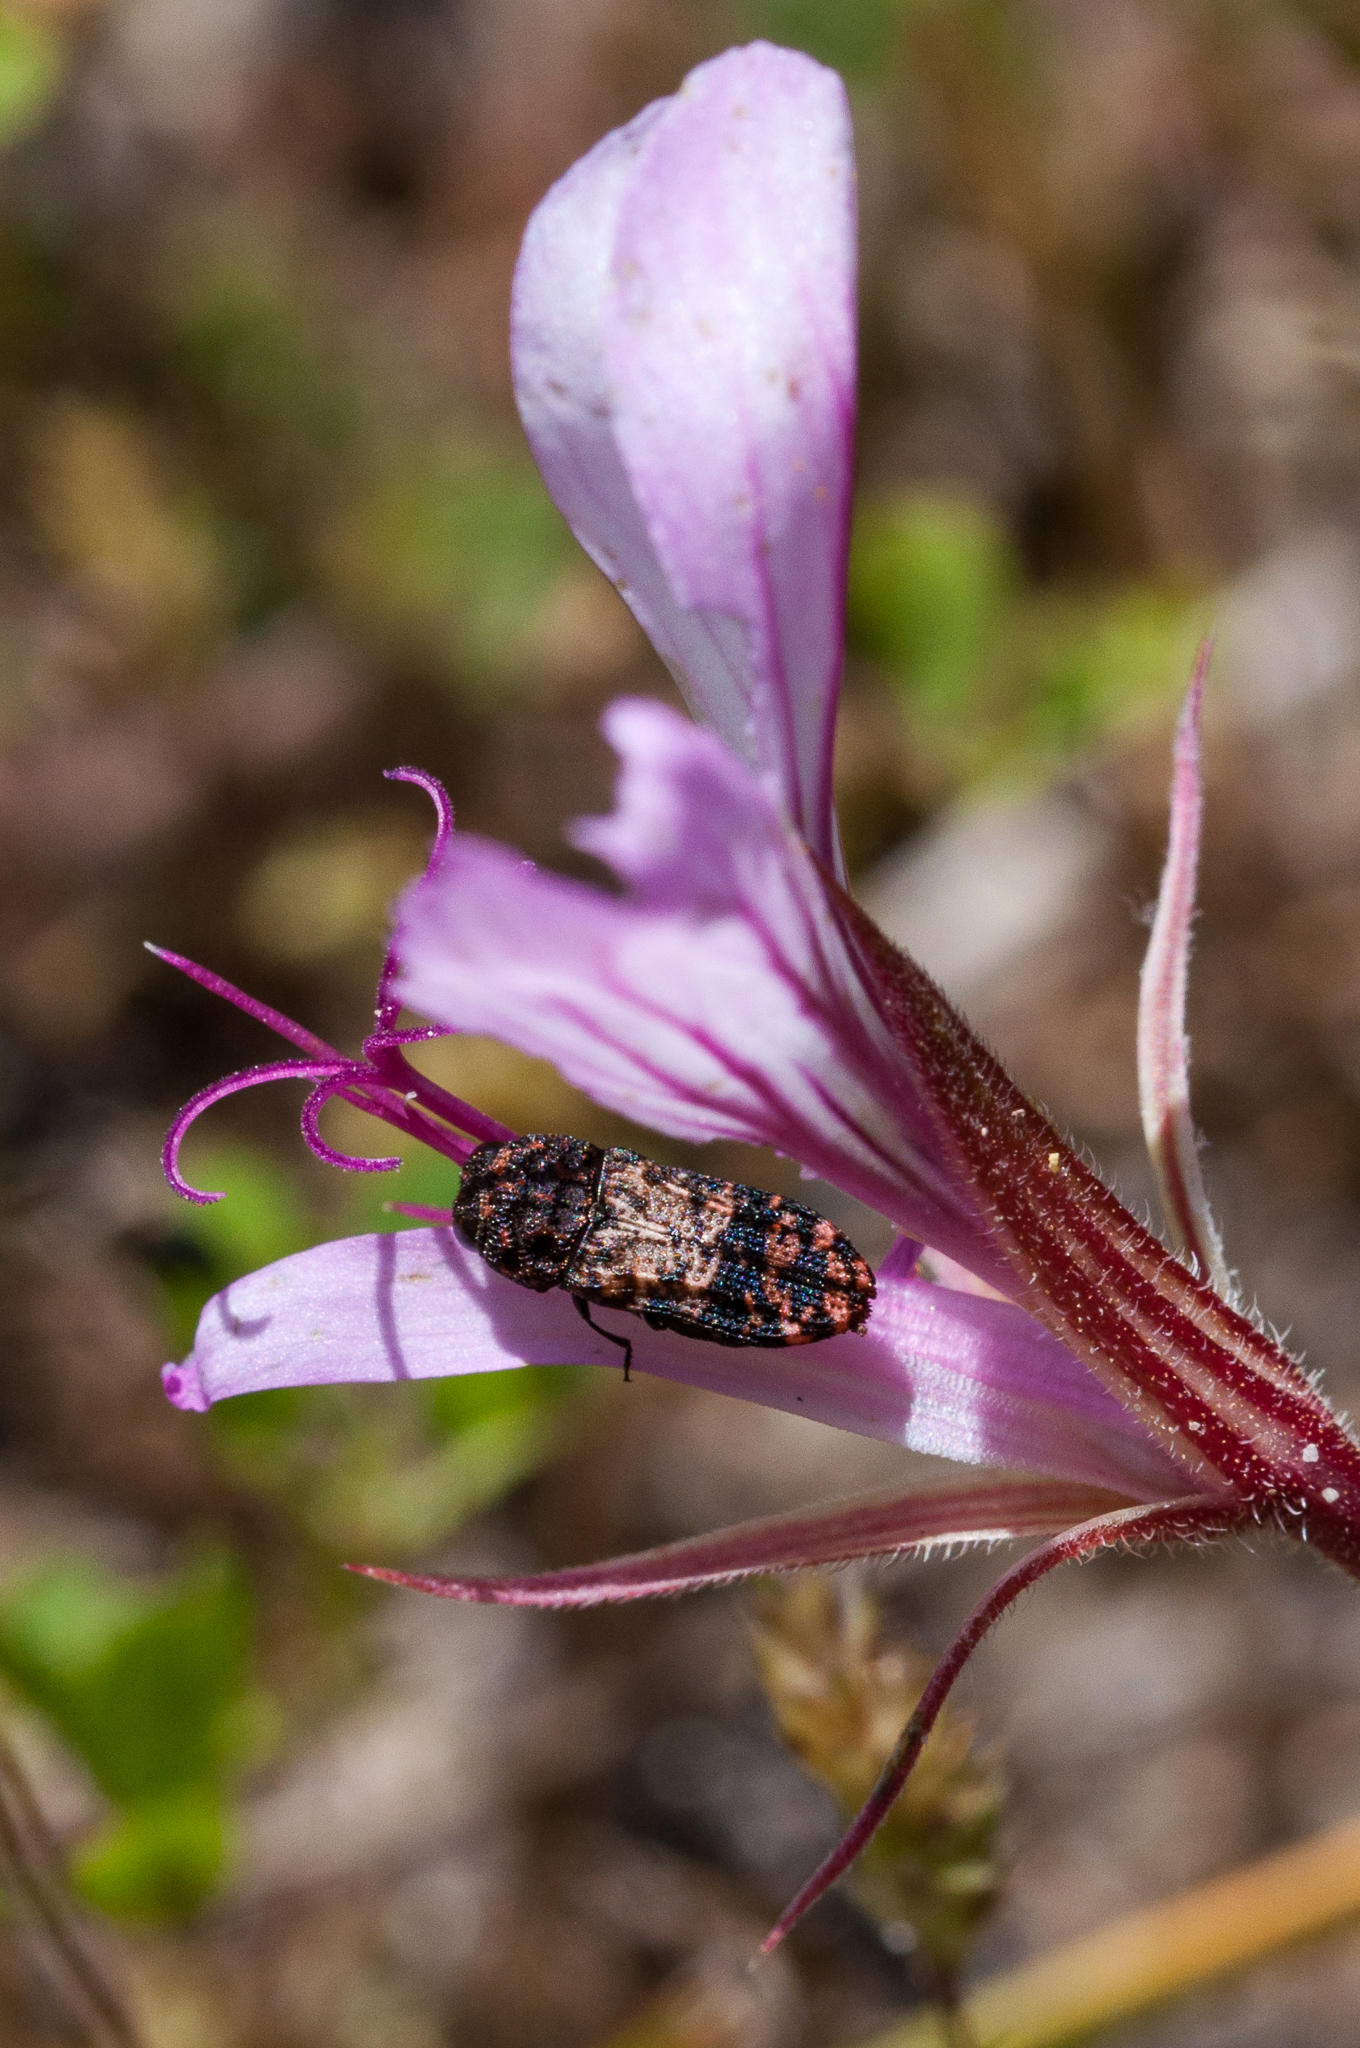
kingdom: Animalia
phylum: Arthropoda
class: Insecta
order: Coleoptera
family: Buprestidae
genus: Nothomorpha
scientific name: Nothomorpha major
